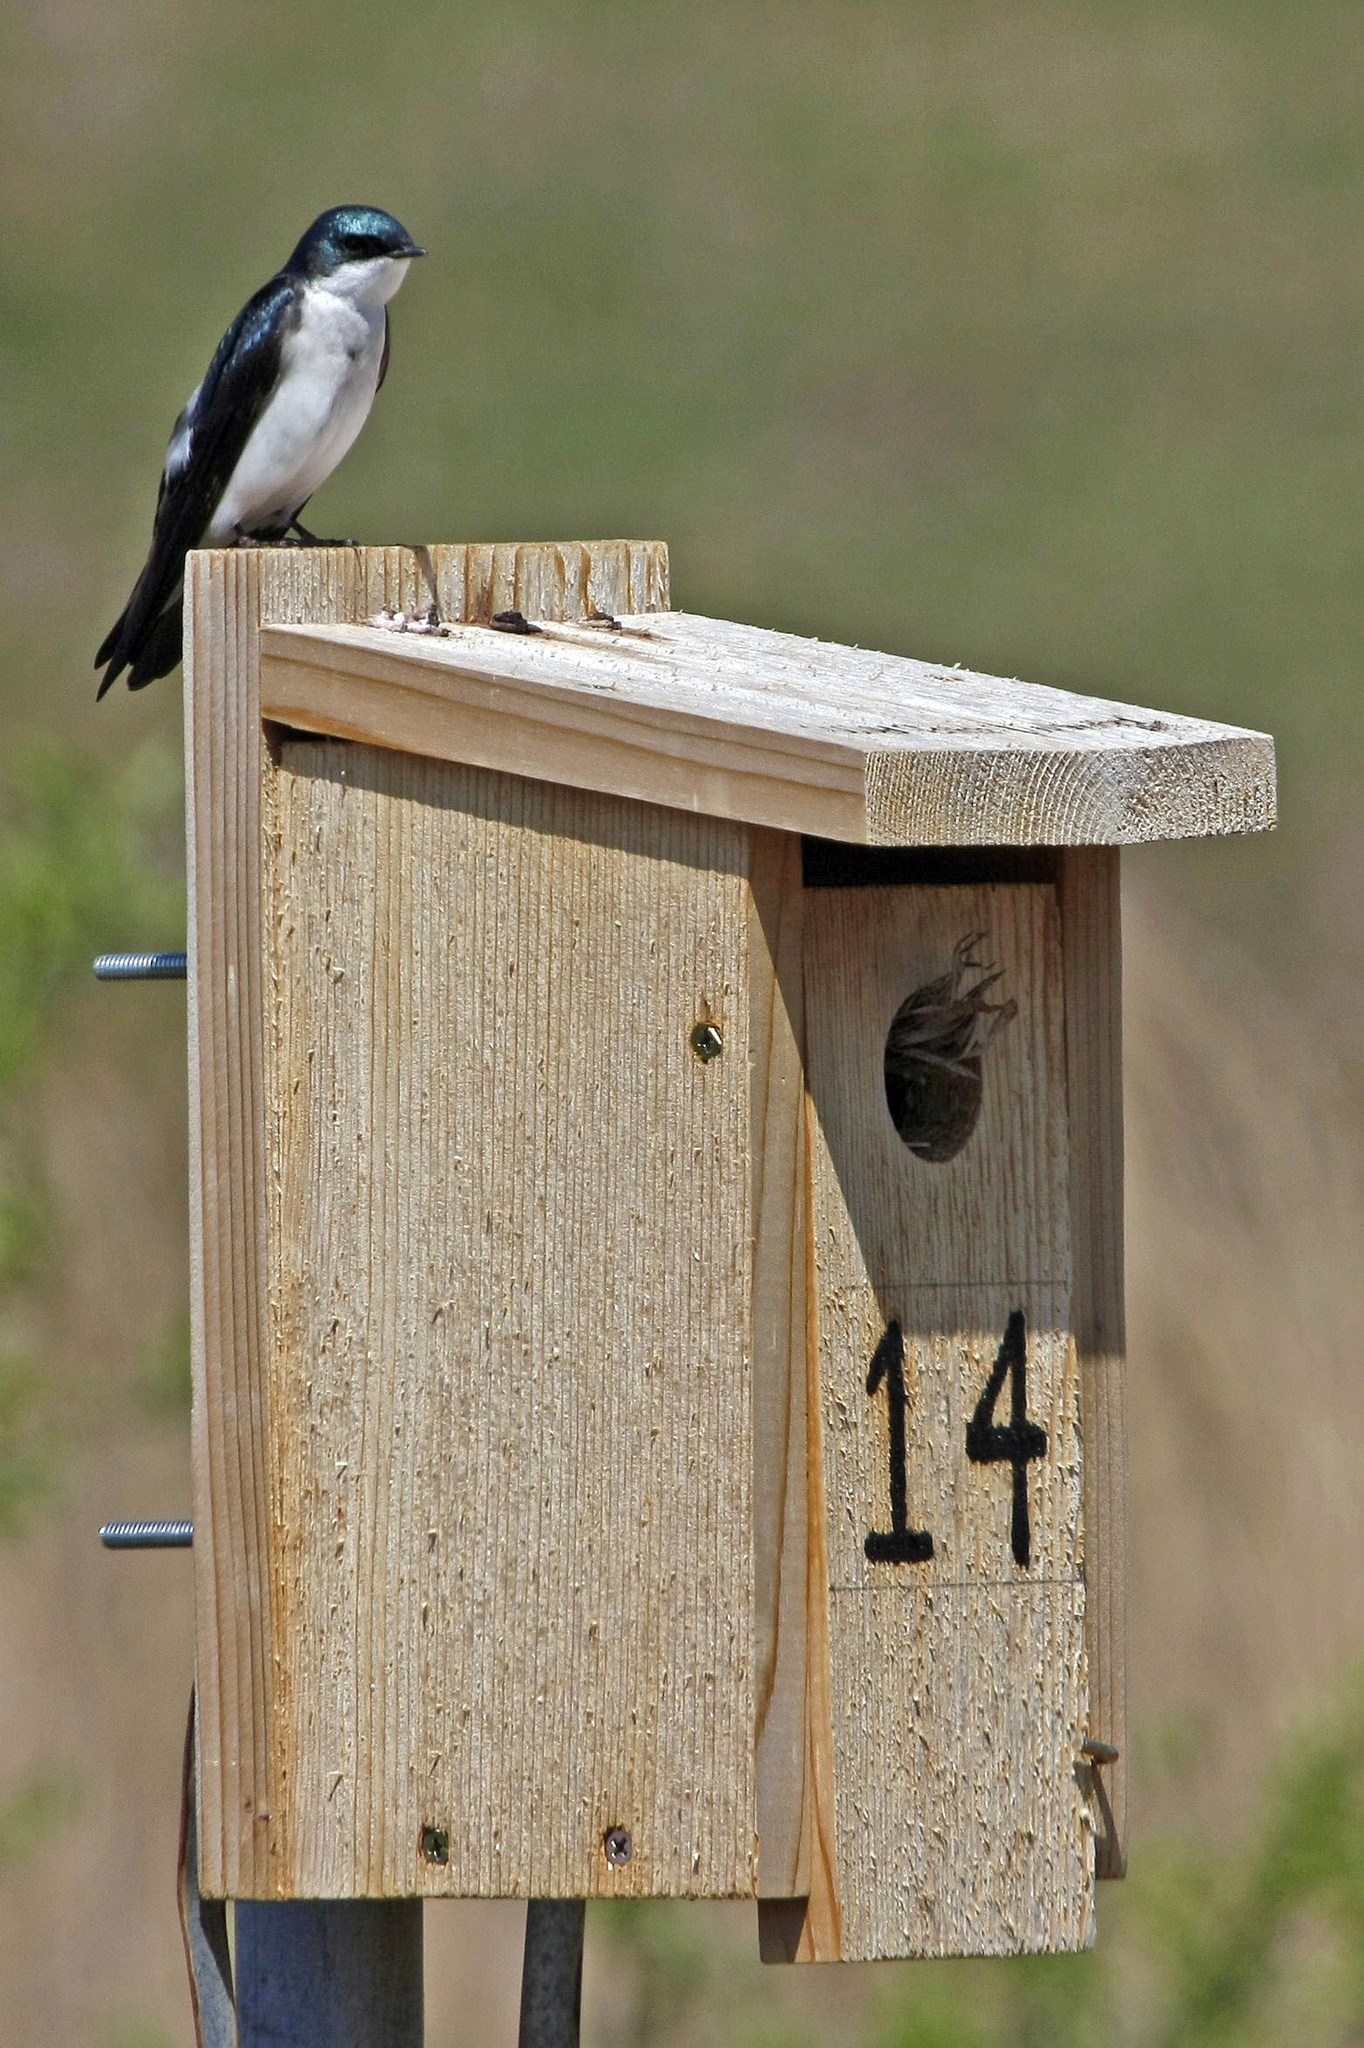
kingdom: Animalia
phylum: Chordata
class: Aves
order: Passeriformes
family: Hirundinidae
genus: Tachycineta
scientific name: Tachycineta bicolor
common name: Tree swallow
